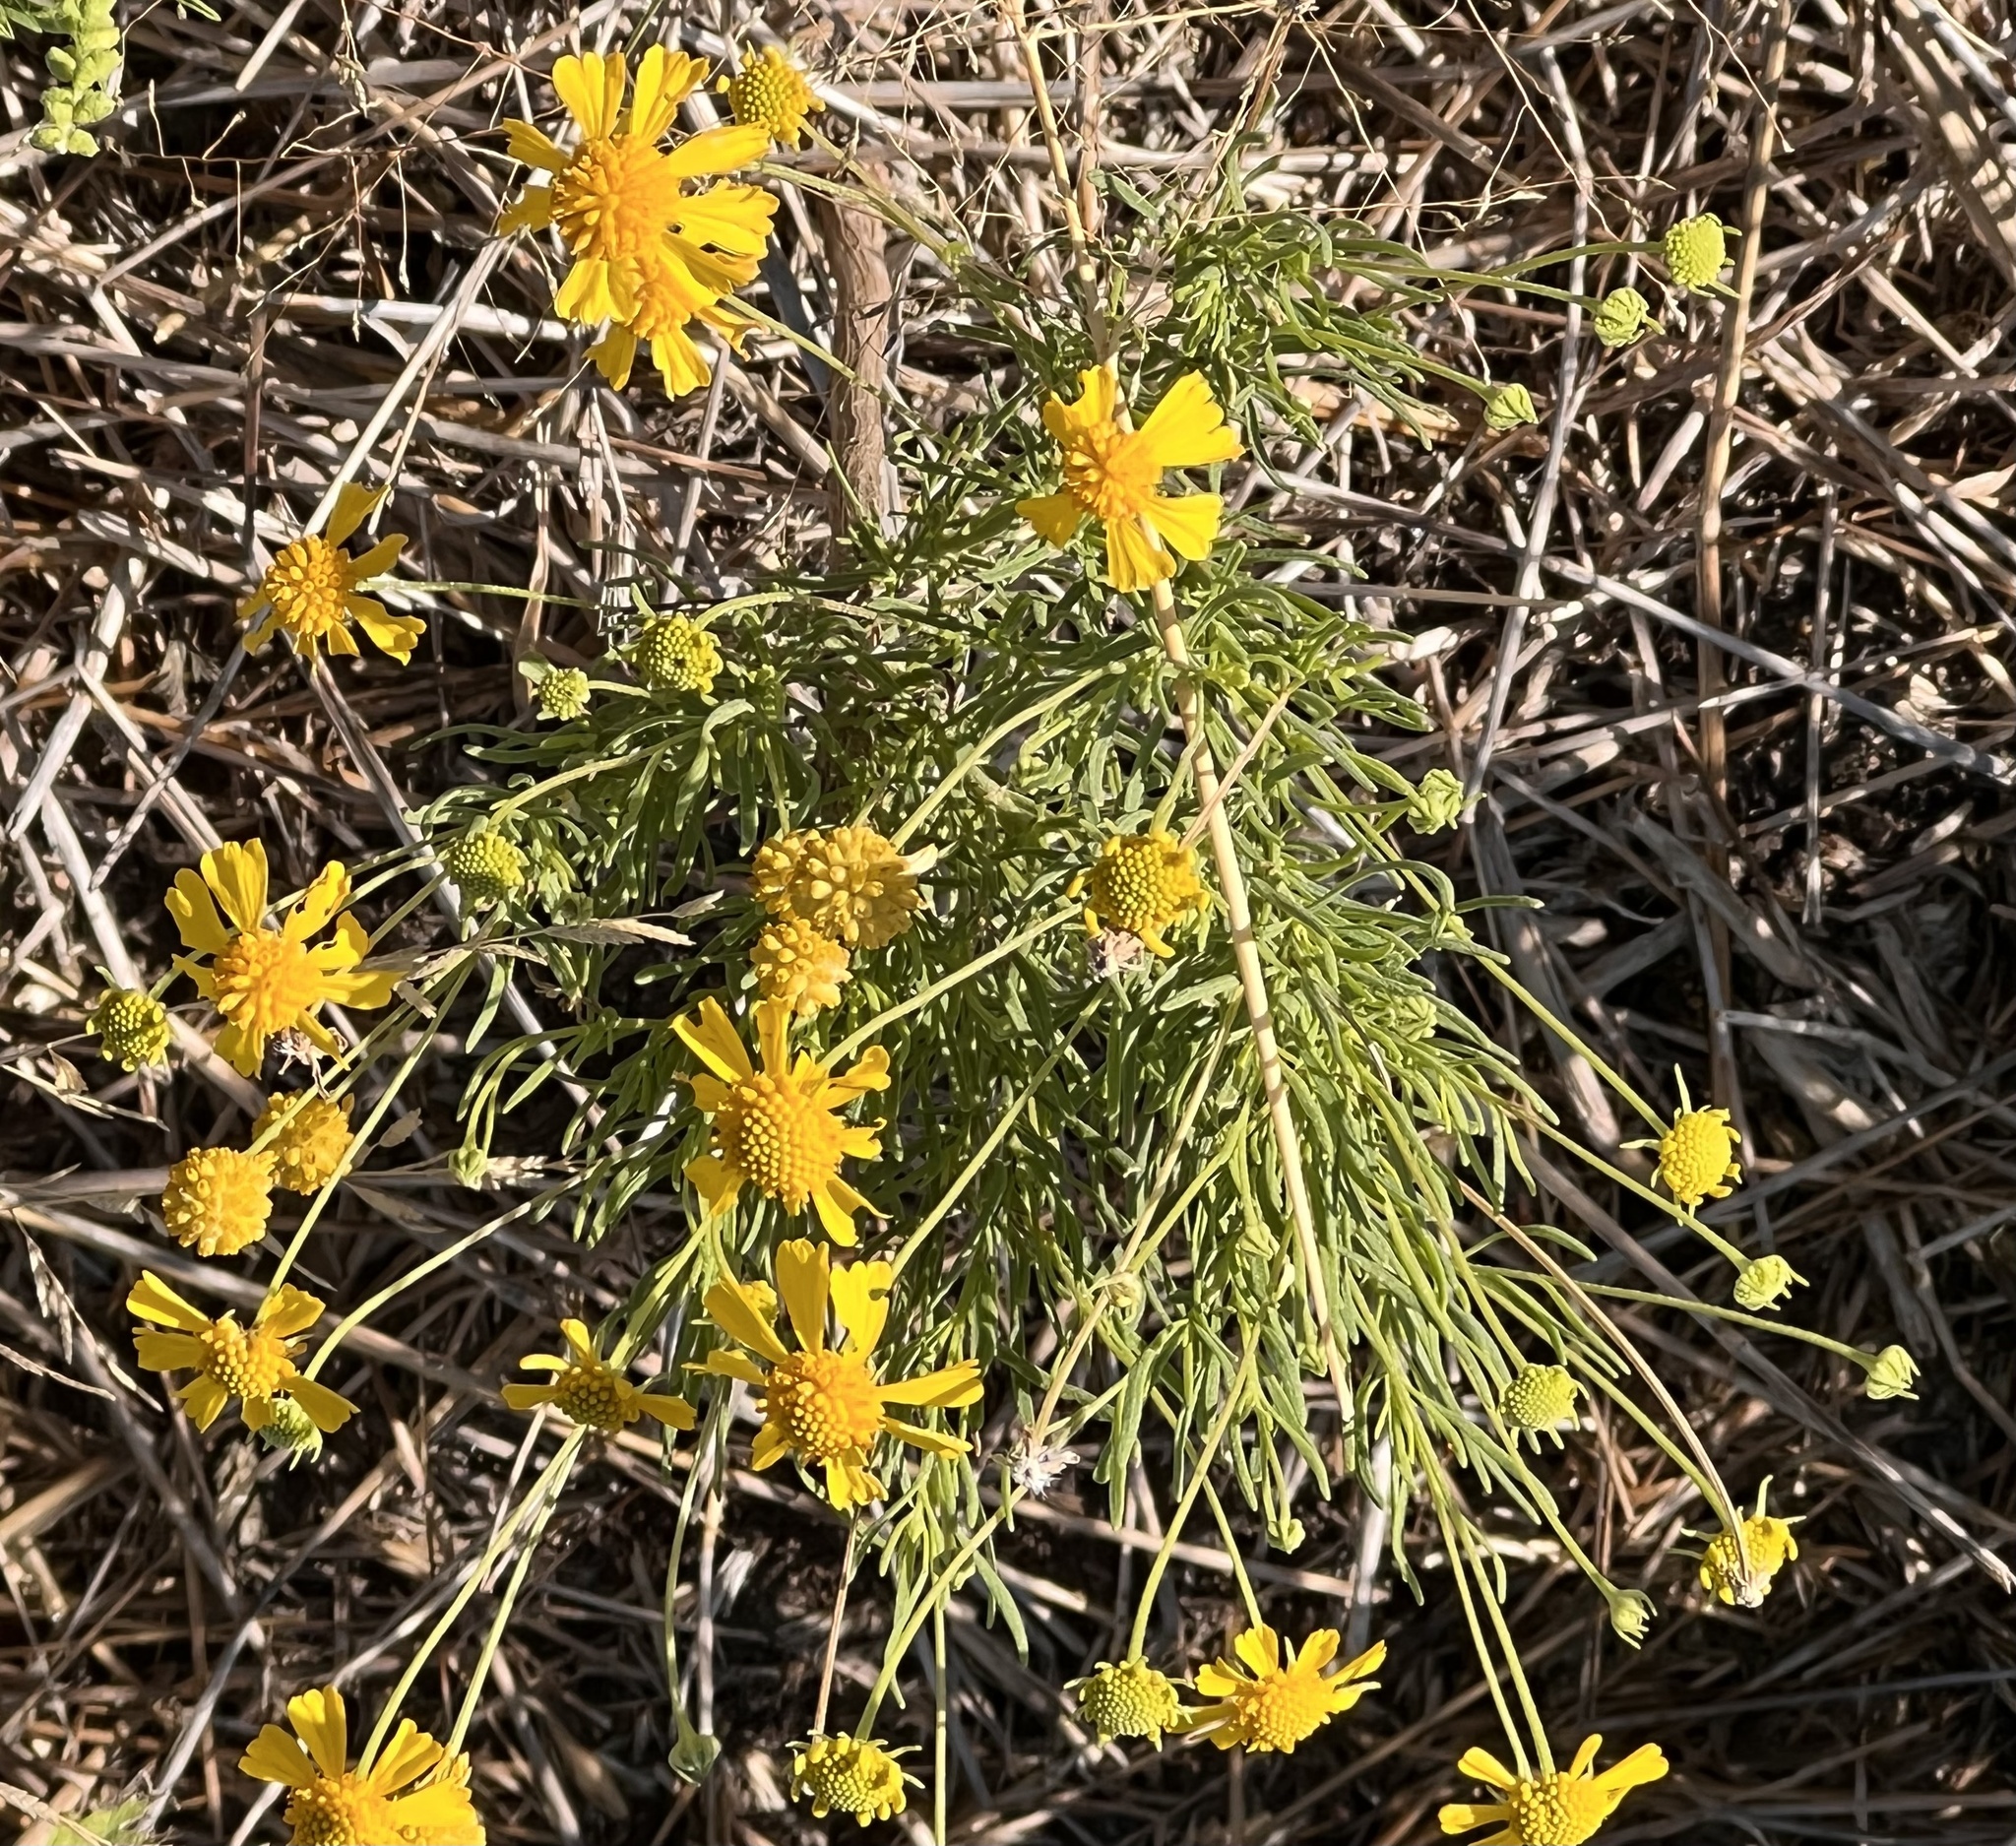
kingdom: Plantae
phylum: Tracheophyta
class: Magnoliopsida
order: Asterales
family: Asteraceae
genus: Helenium
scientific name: Helenium amarum
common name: Bitter sneezeweed
